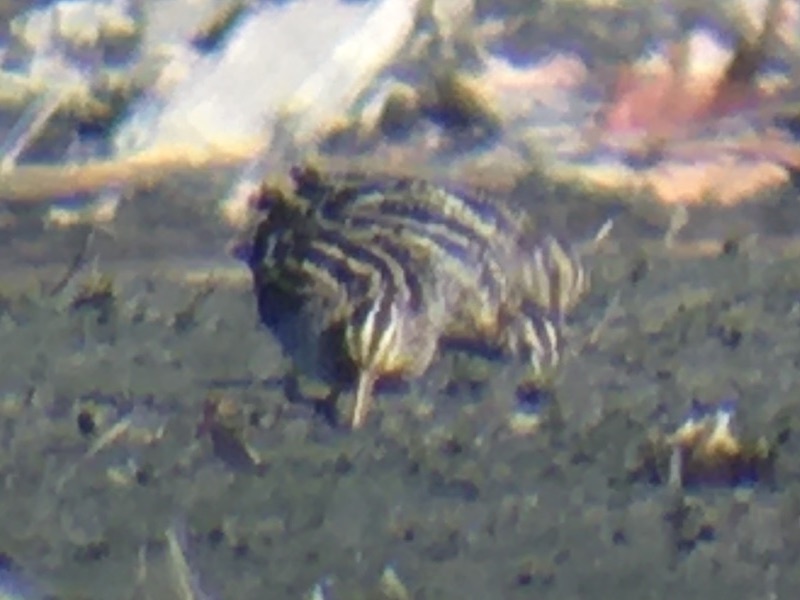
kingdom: Animalia
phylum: Chordata
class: Aves
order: Charadriiformes
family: Scolopacidae
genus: Gallinago
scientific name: Gallinago delicata
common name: Wilson's snipe
